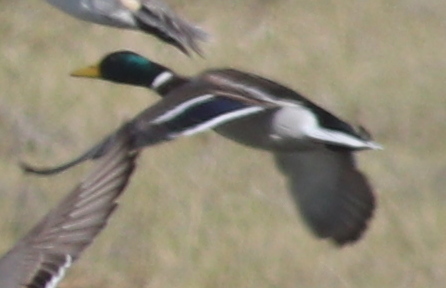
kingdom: Animalia
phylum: Chordata
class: Aves
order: Anseriformes
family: Anatidae
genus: Anas
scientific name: Anas platyrhynchos
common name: Mallard
